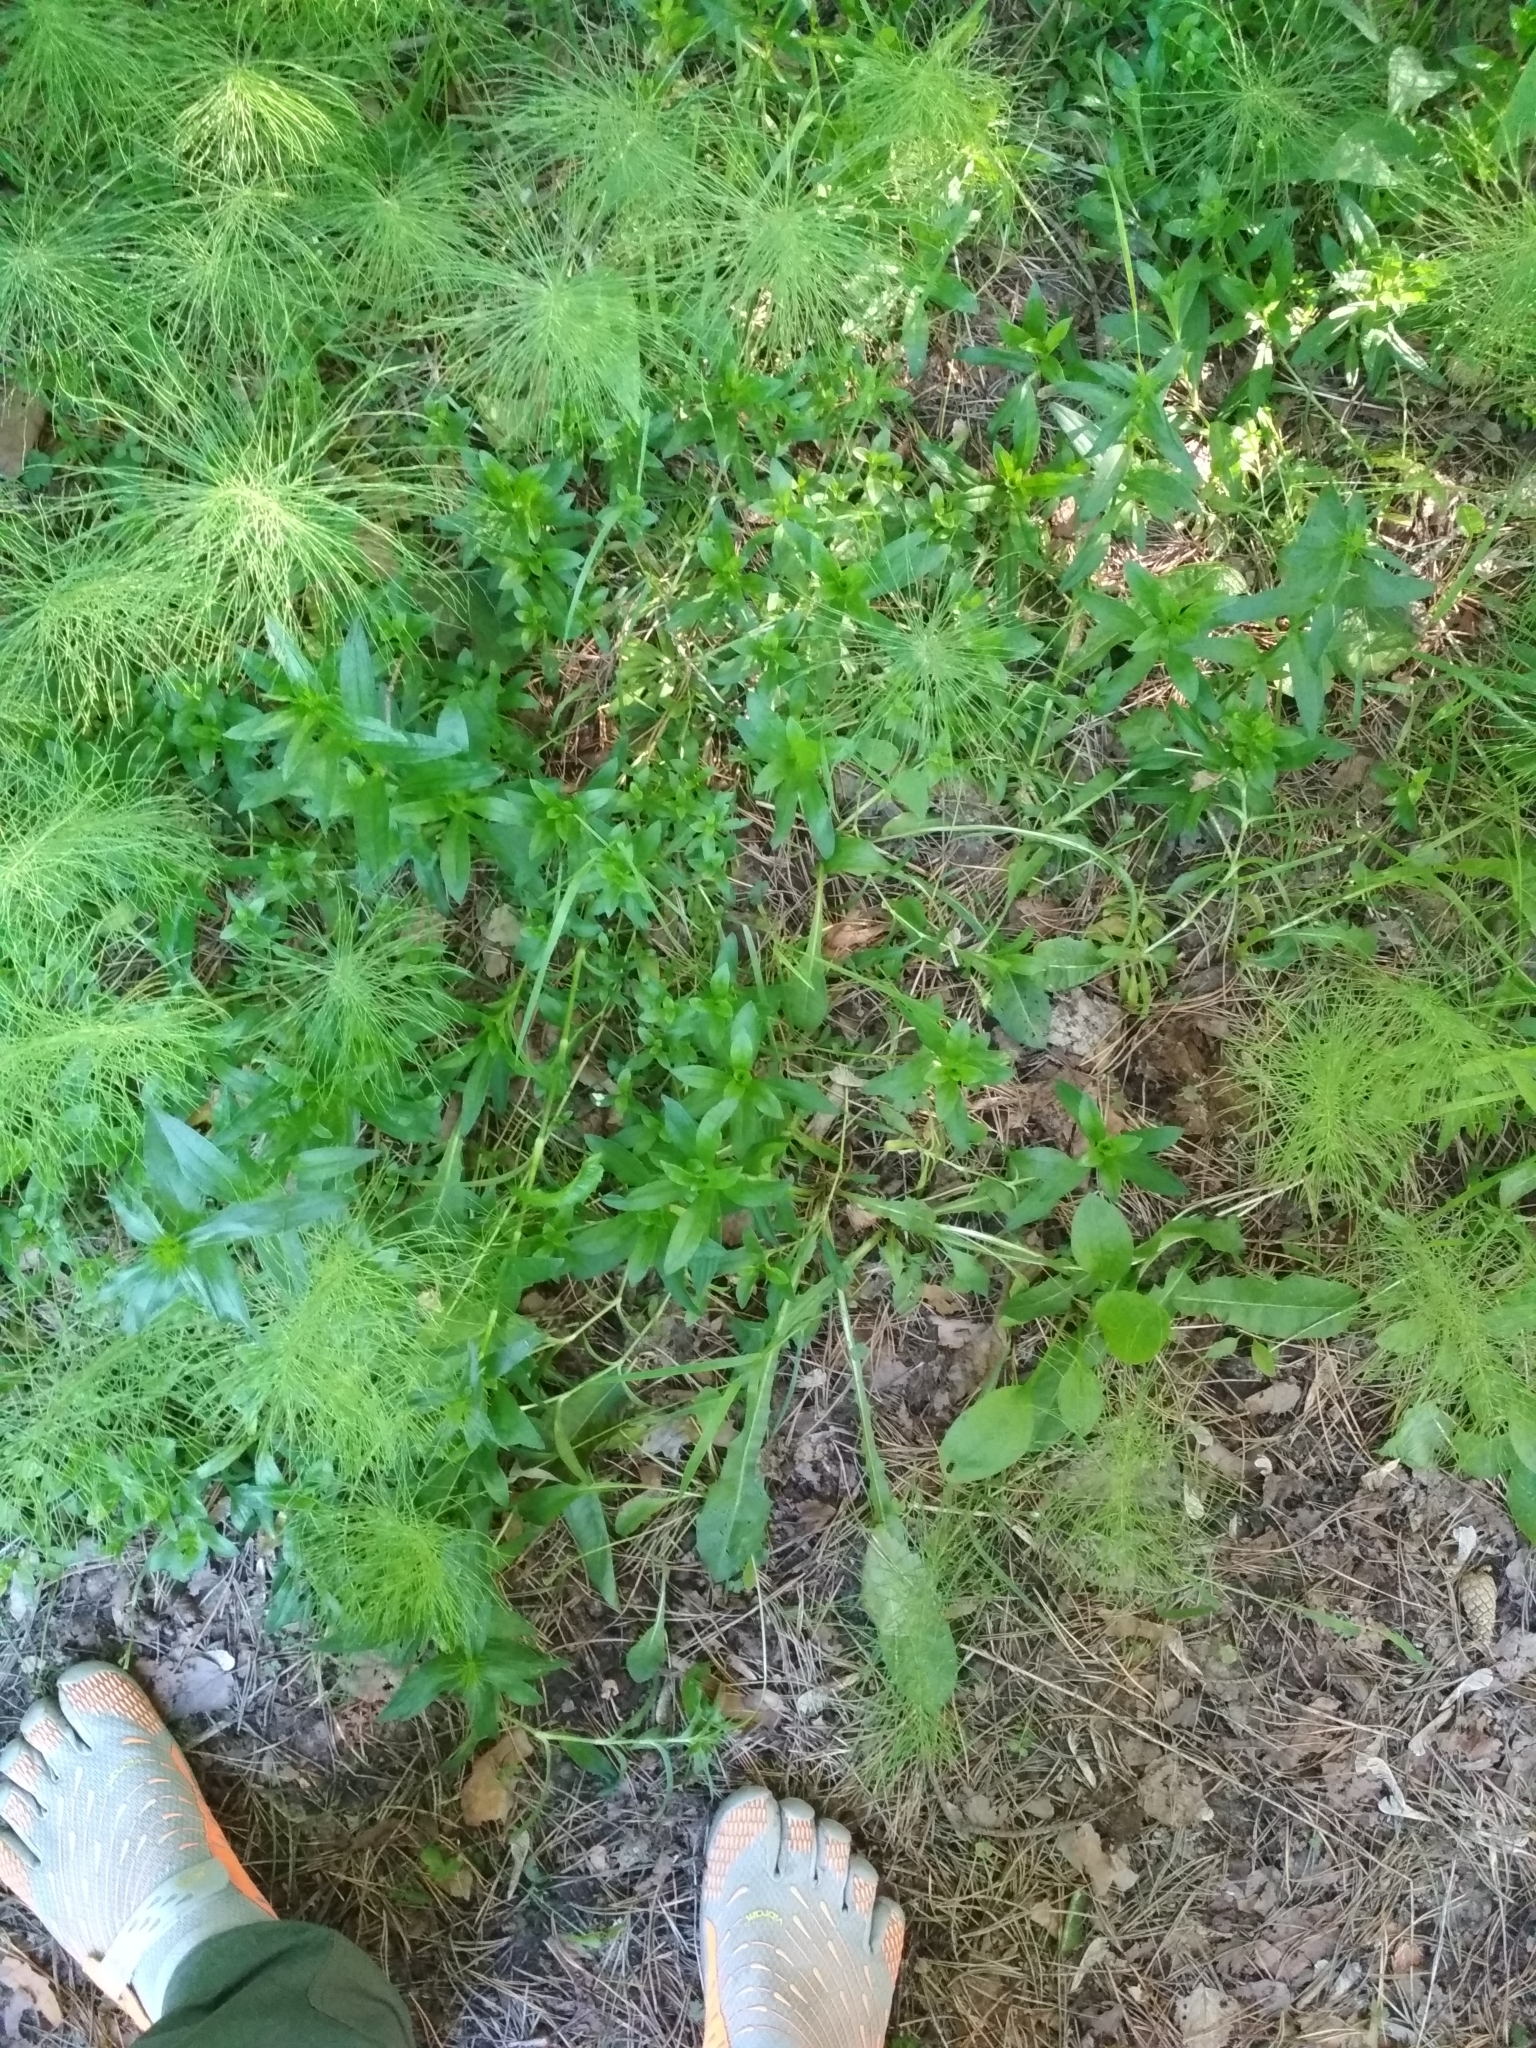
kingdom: Plantae
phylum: Tracheophyta
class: Magnoliopsida
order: Caryophyllales
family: Caryophyllaceae
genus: Dianthus
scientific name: Dianthus barbatus
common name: Sweet-william
